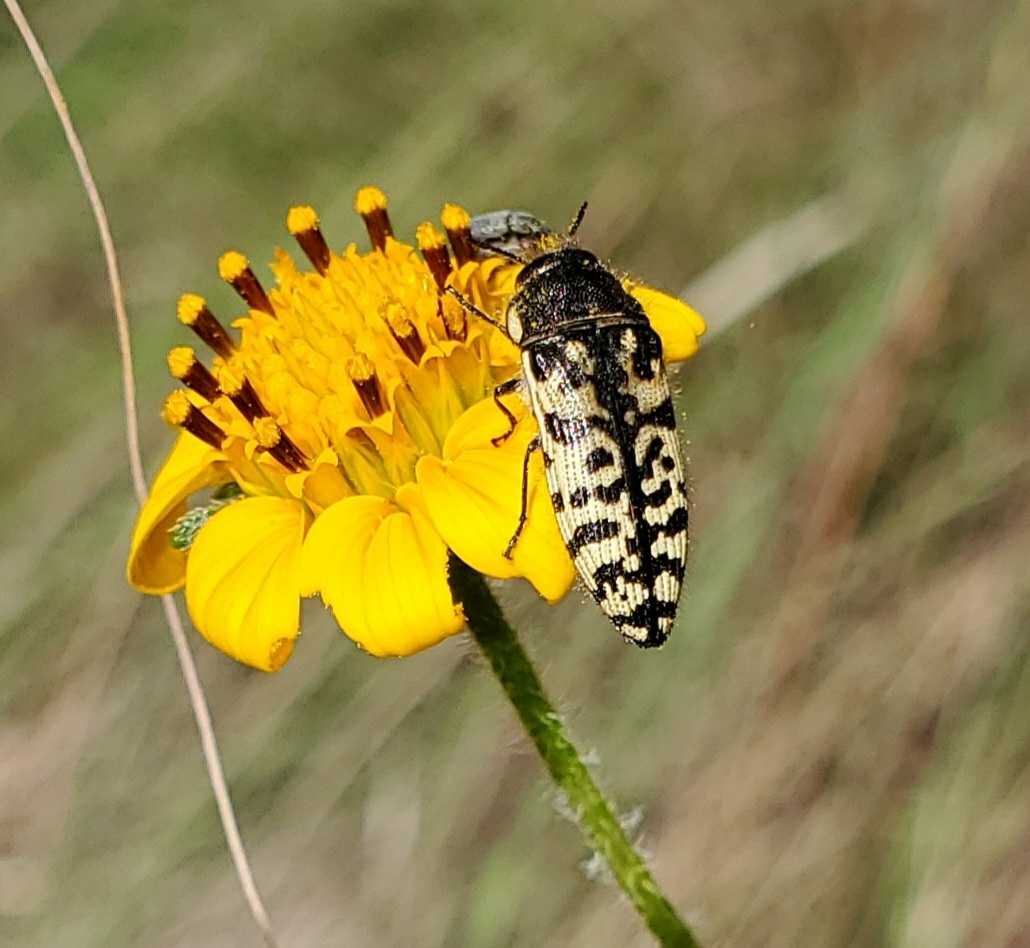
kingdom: Animalia
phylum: Arthropoda
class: Insecta
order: Coleoptera
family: Buprestidae
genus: Acmaeodera
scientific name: Acmaeodera decipiens
